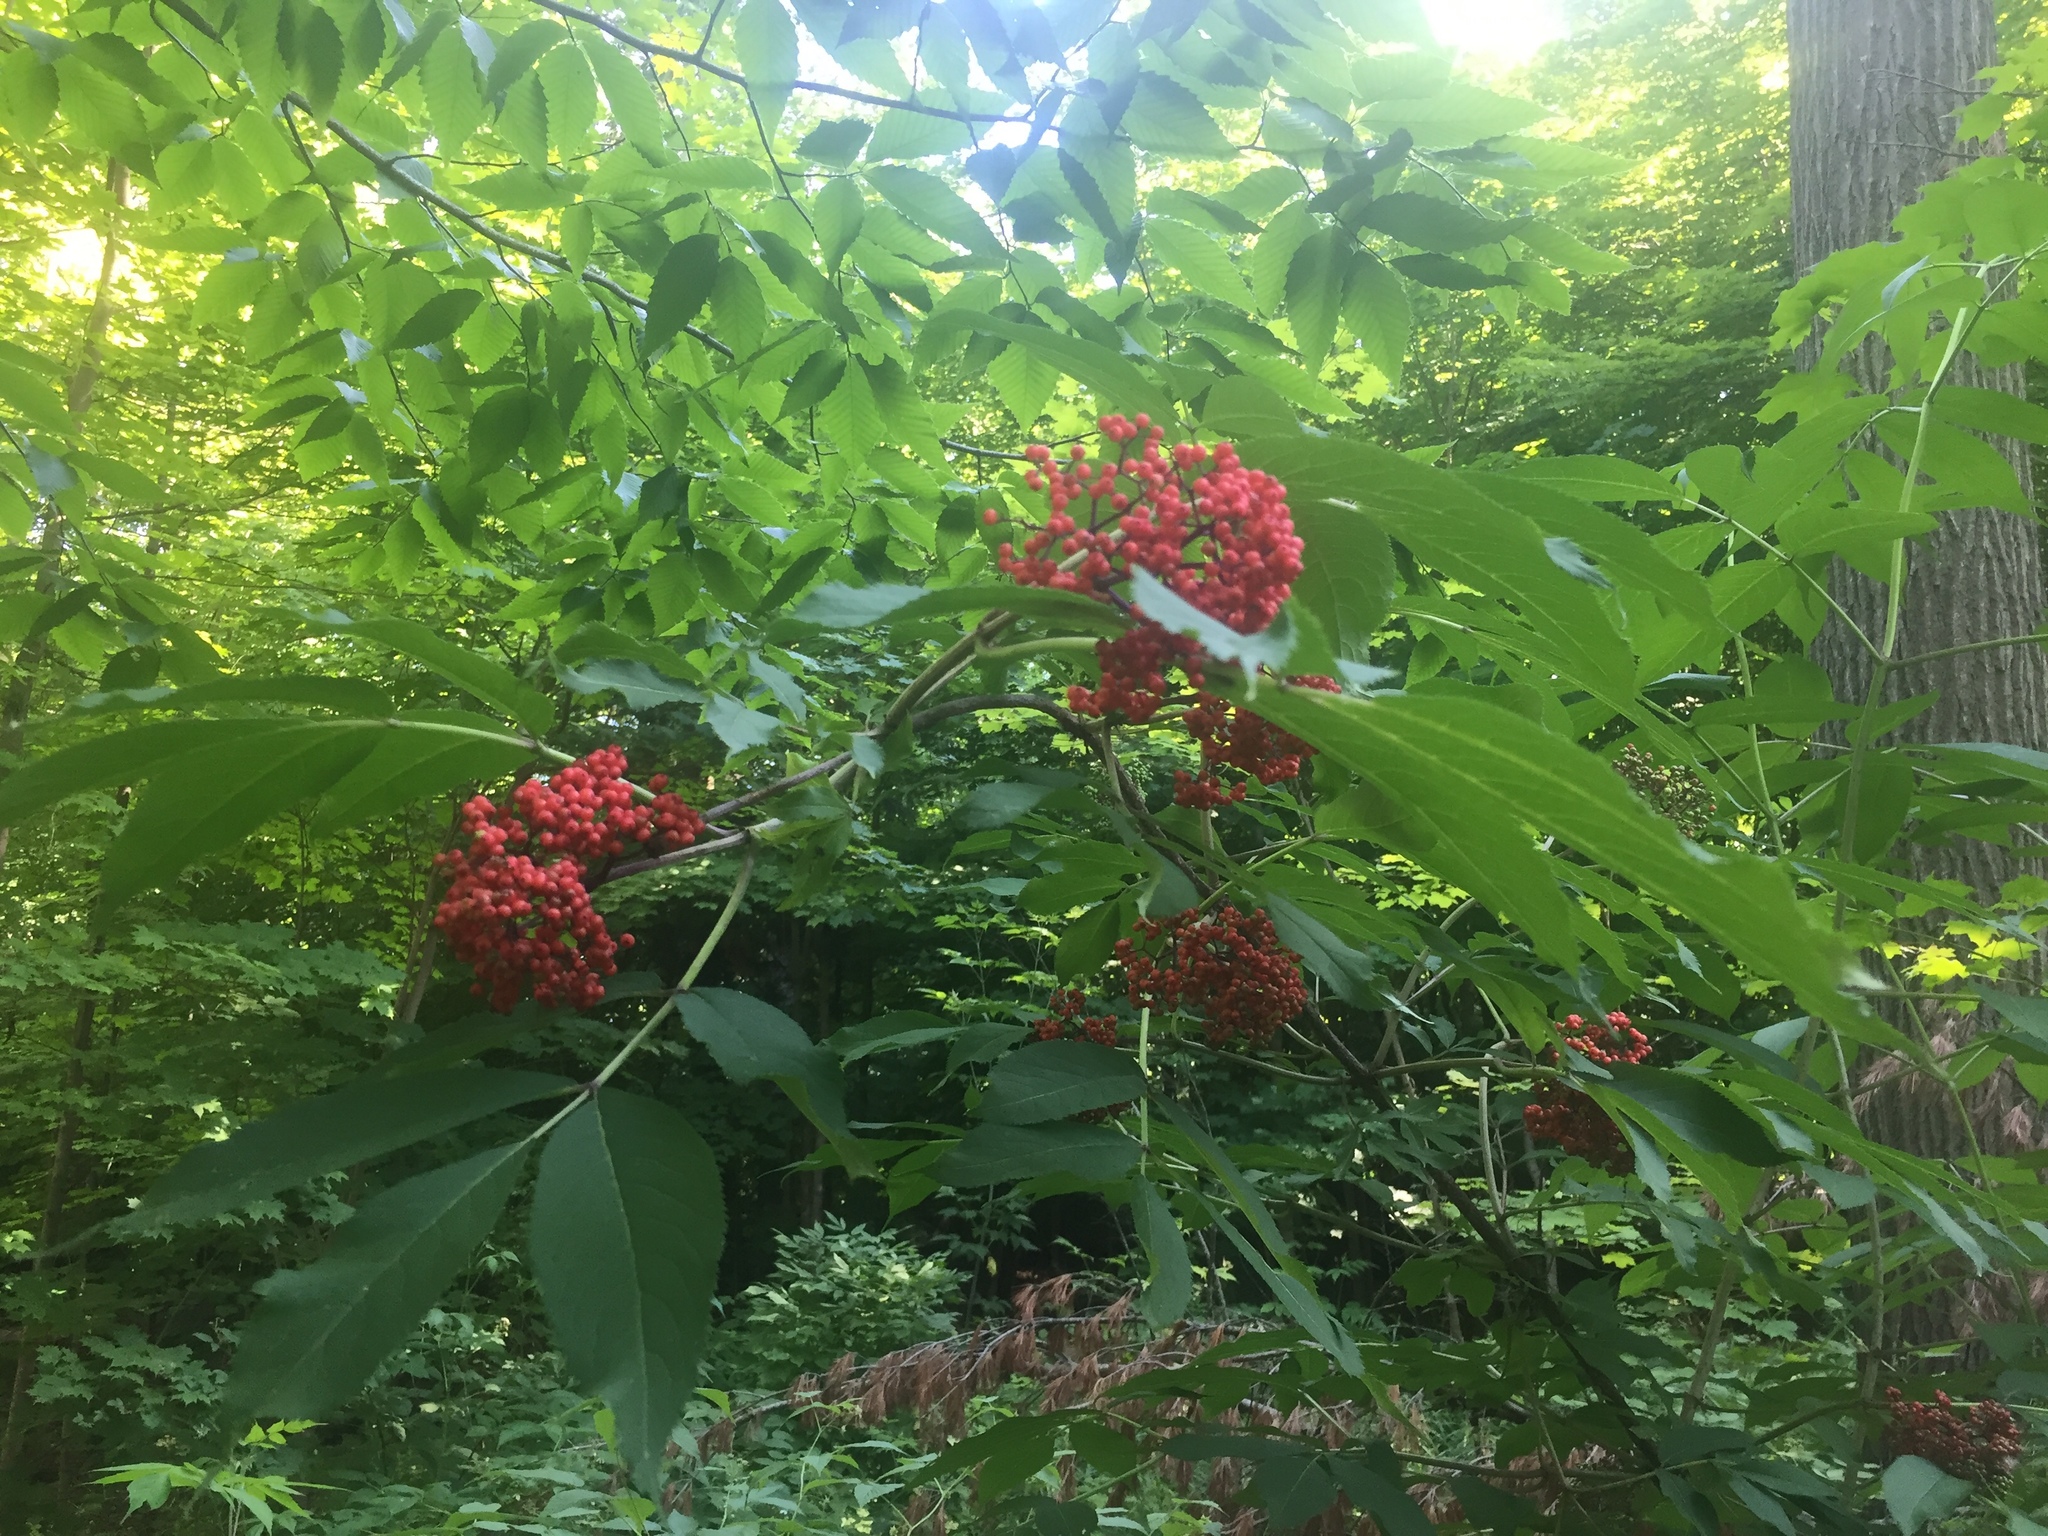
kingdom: Plantae
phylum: Tracheophyta
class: Magnoliopsida
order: Dipsacales
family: Viburnaceae
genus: Sambucus
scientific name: Sambucus racemosa
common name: Red-berried elder
